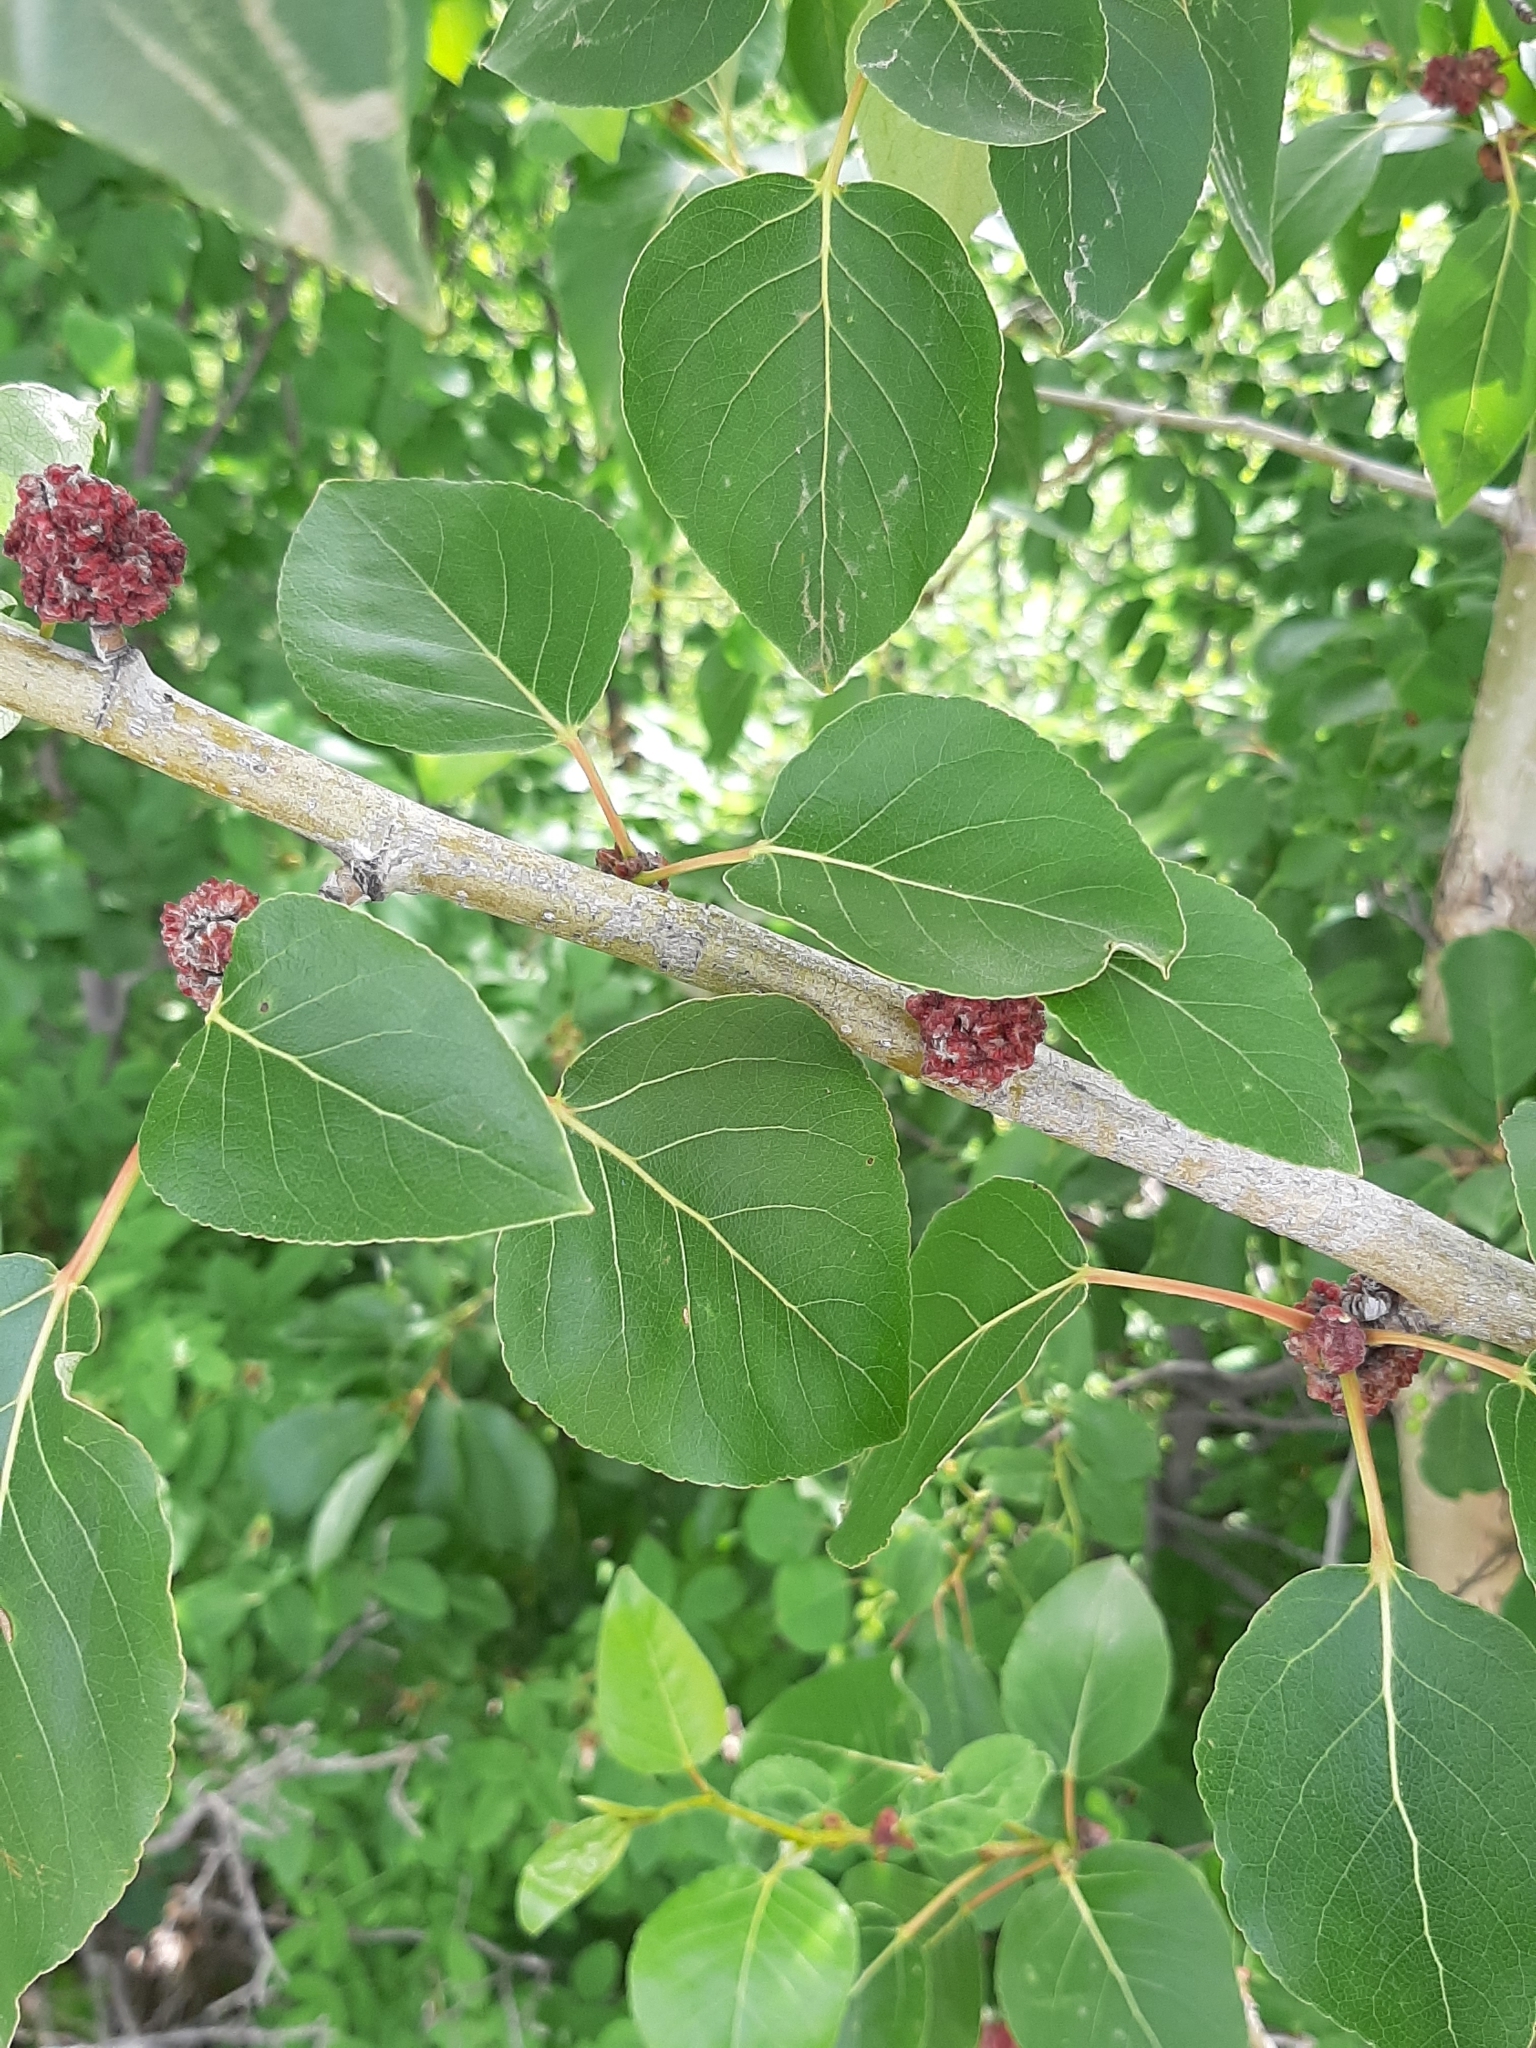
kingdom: Animalia
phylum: Arthropoda
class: Arachnida
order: Trombidiformes
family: Eriophyidae
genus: Aceria
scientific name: Aceria
